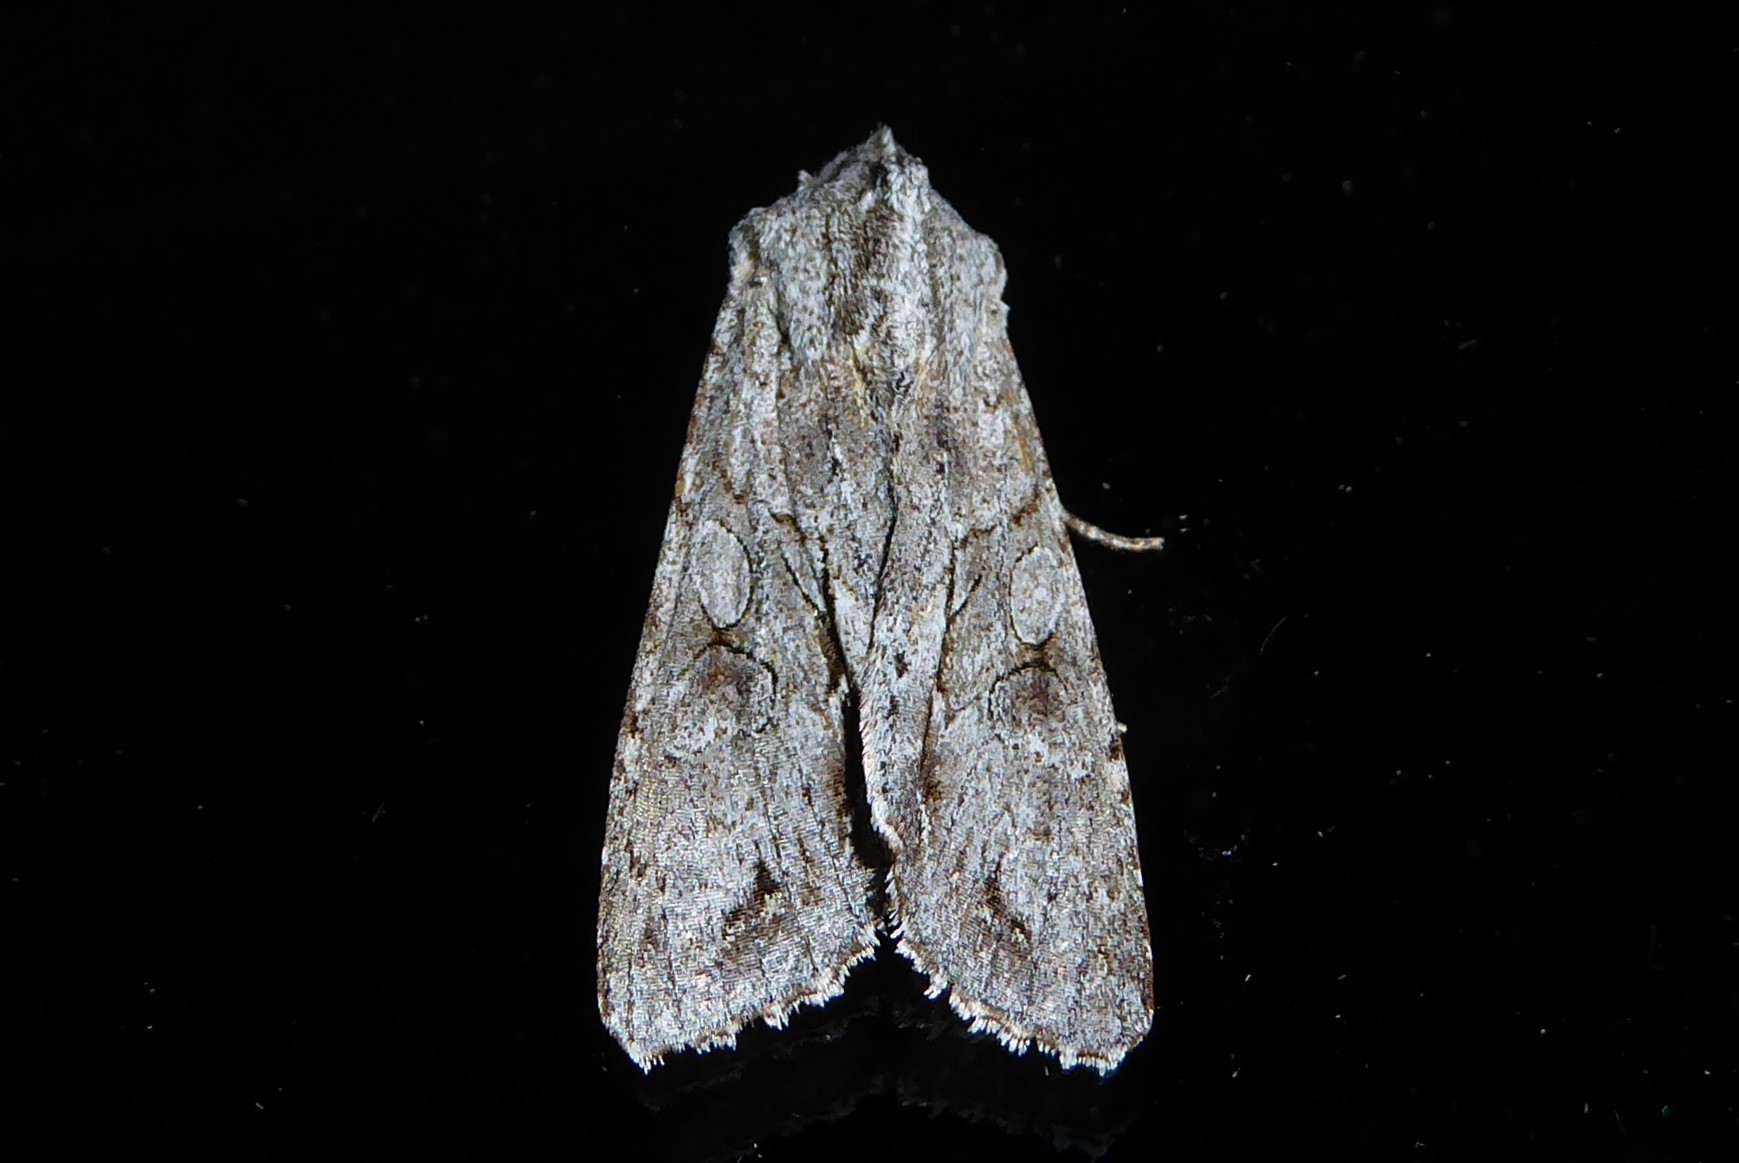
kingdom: Animalia
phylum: Arthropoda
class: Insecta
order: Lepidoptera
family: Noctuidae
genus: Ichneutica
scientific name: Ichneutica
